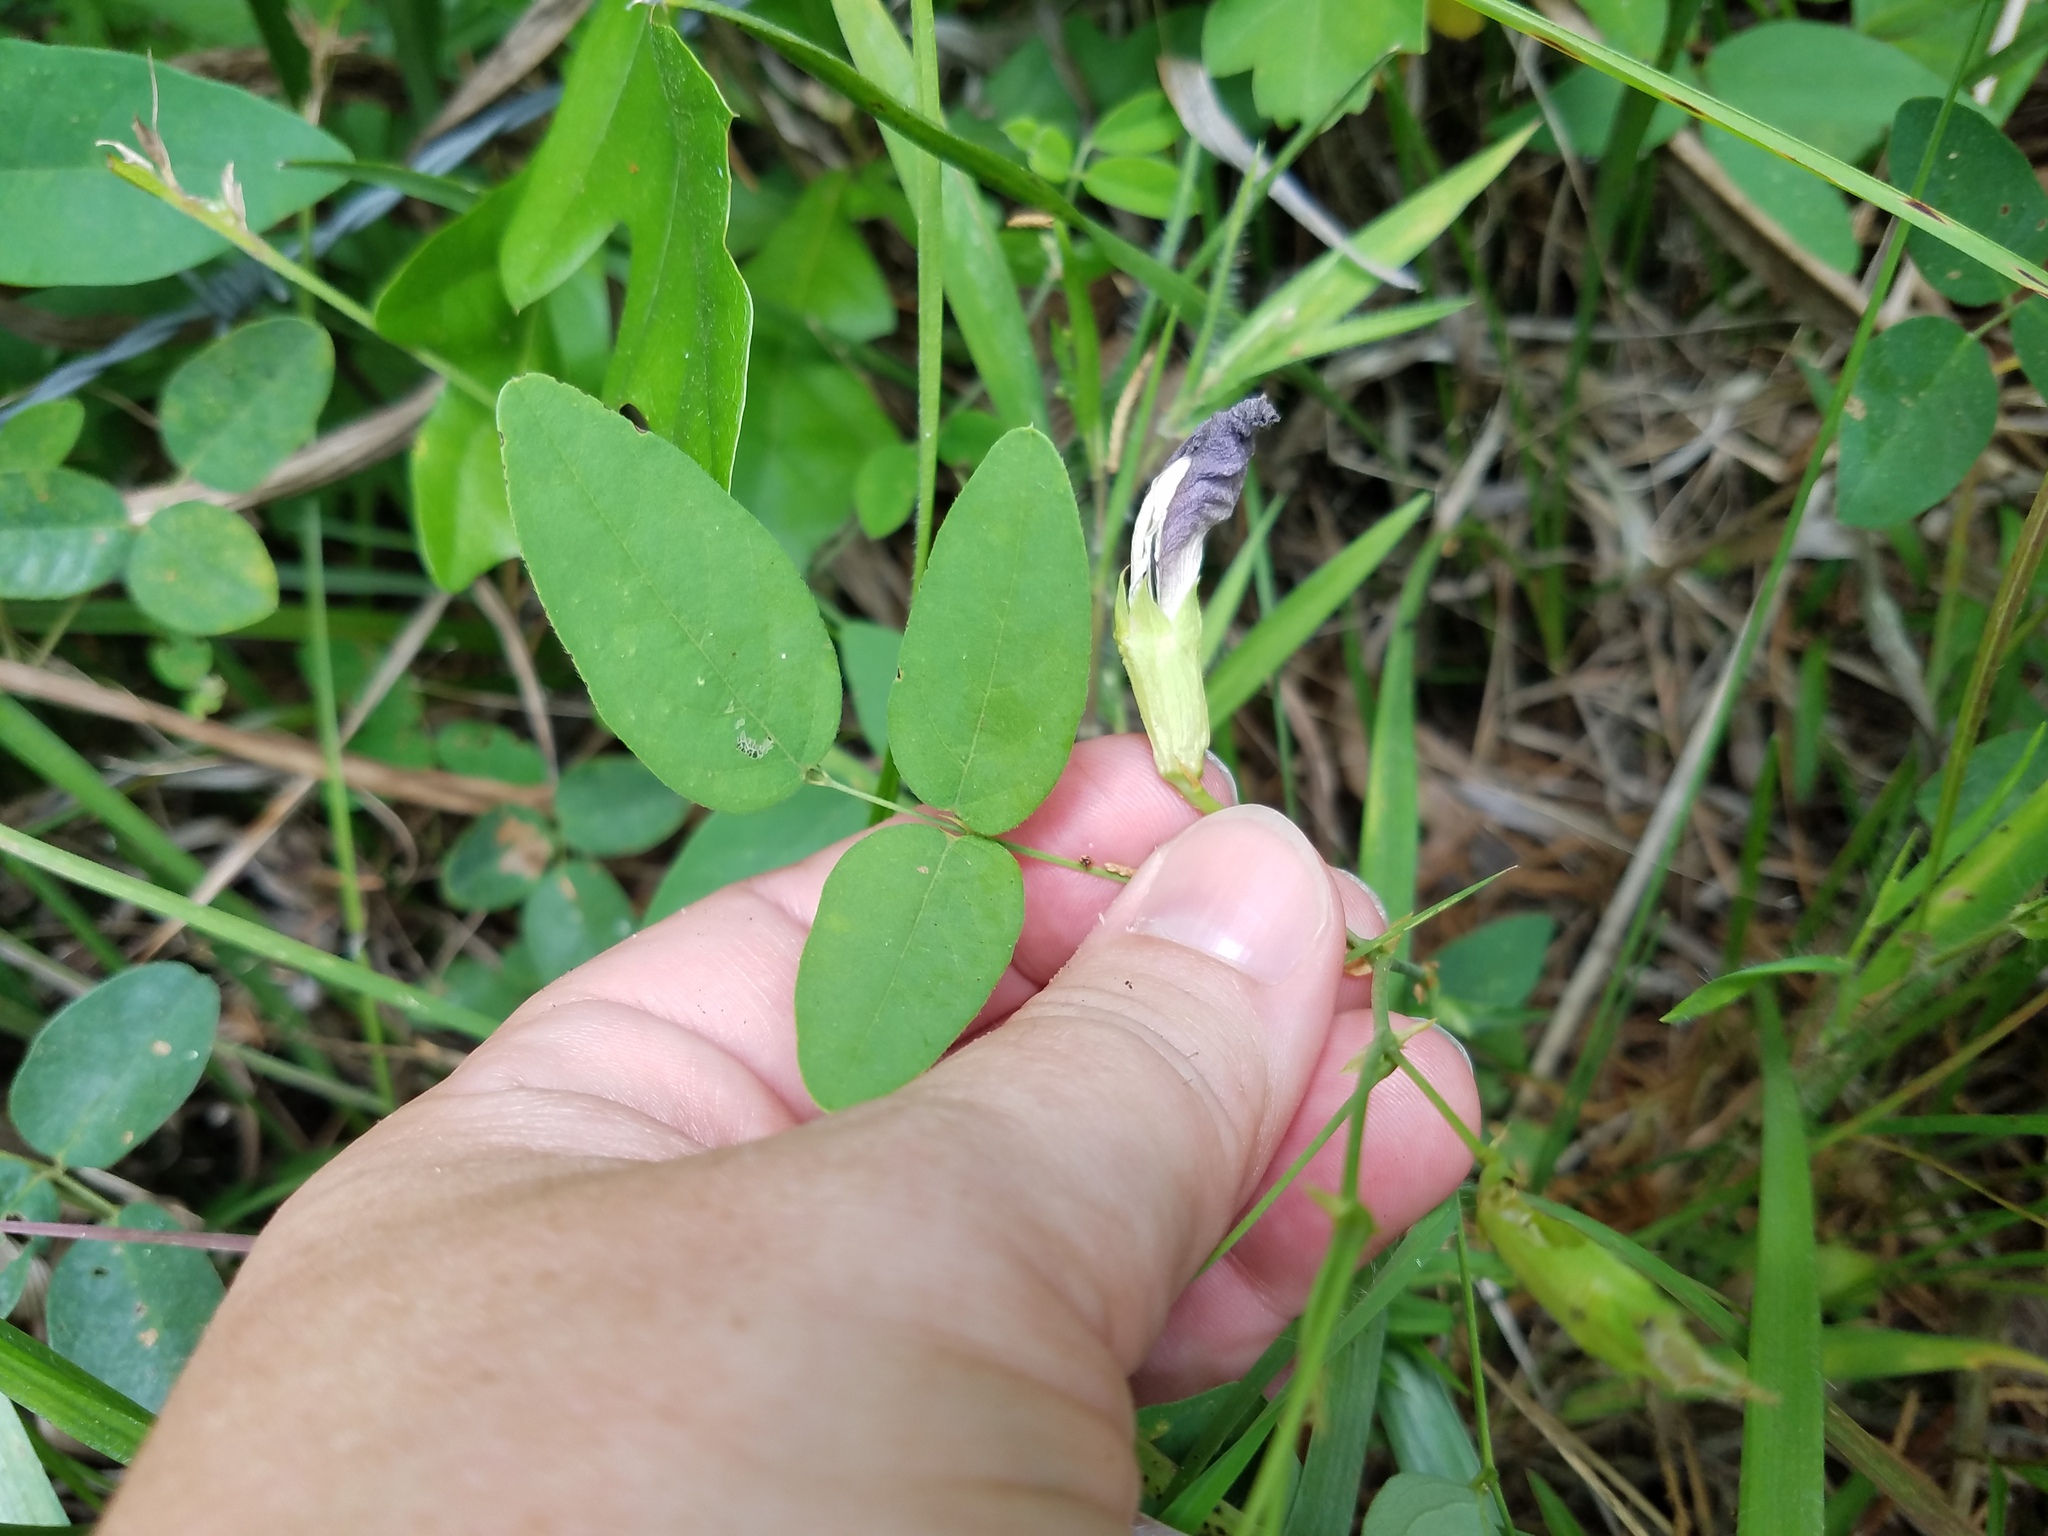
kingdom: Plantae
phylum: Tracheophyta
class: Magnoliopsida
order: Fabales
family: Fabaceae
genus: Clitoria
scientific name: Clitoria mariana
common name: Butterfly-pea
